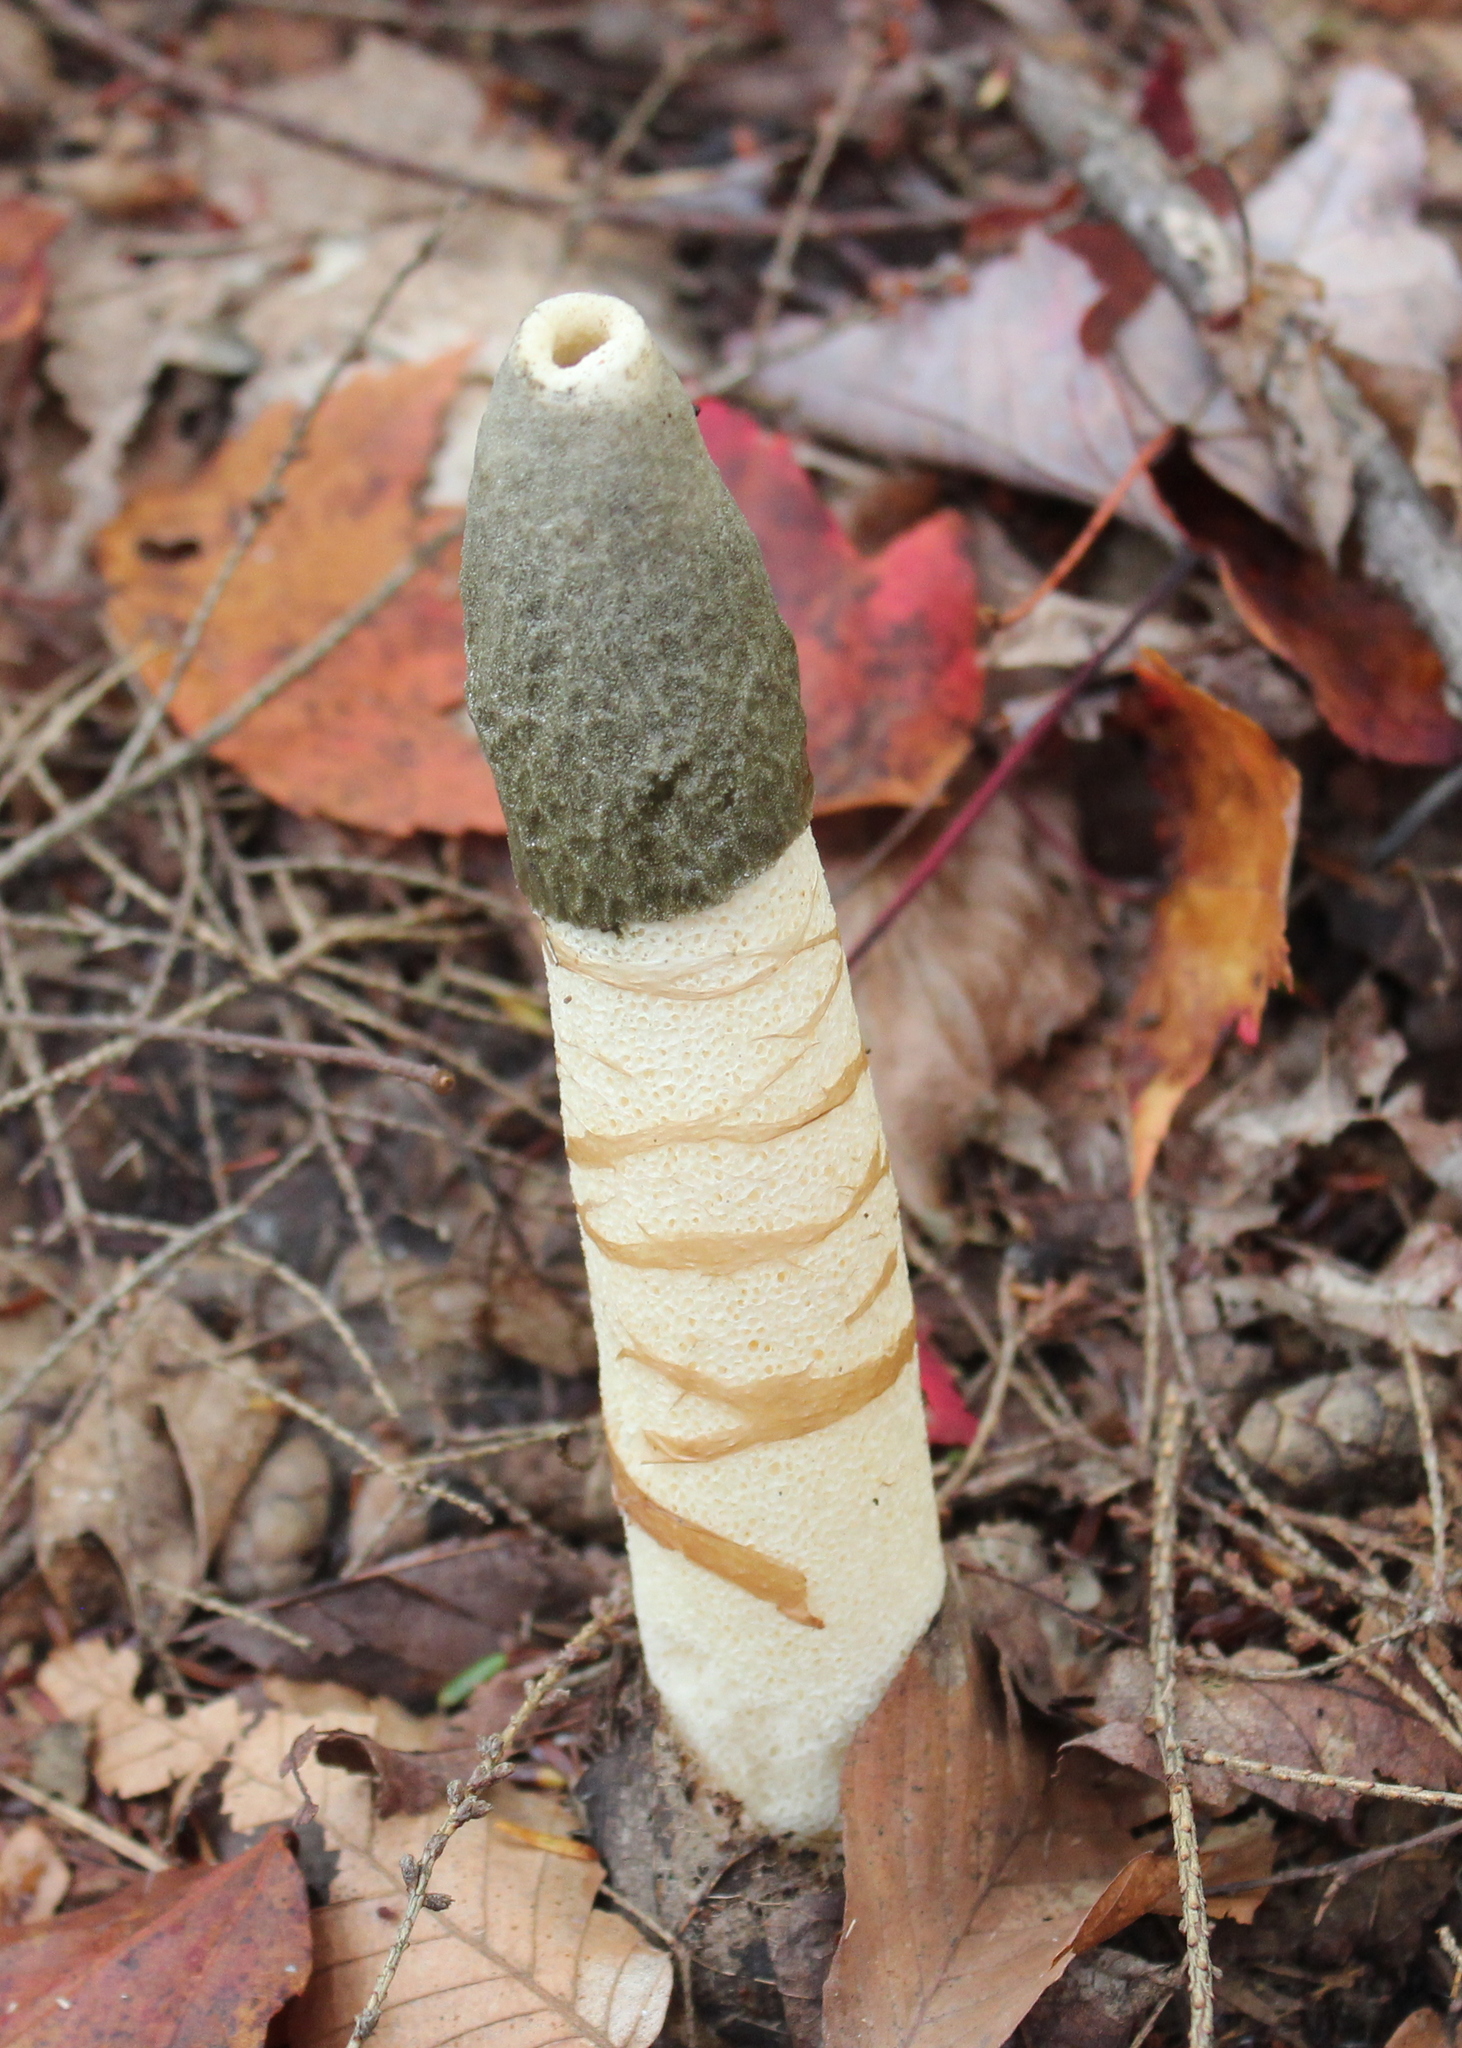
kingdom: Fungi
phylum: Basidiomycota
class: Agaricomycetes
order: Phallales
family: Phallaceae
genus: Phallus
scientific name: Phallus ravenelii
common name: Ravenel's stinkhorn
